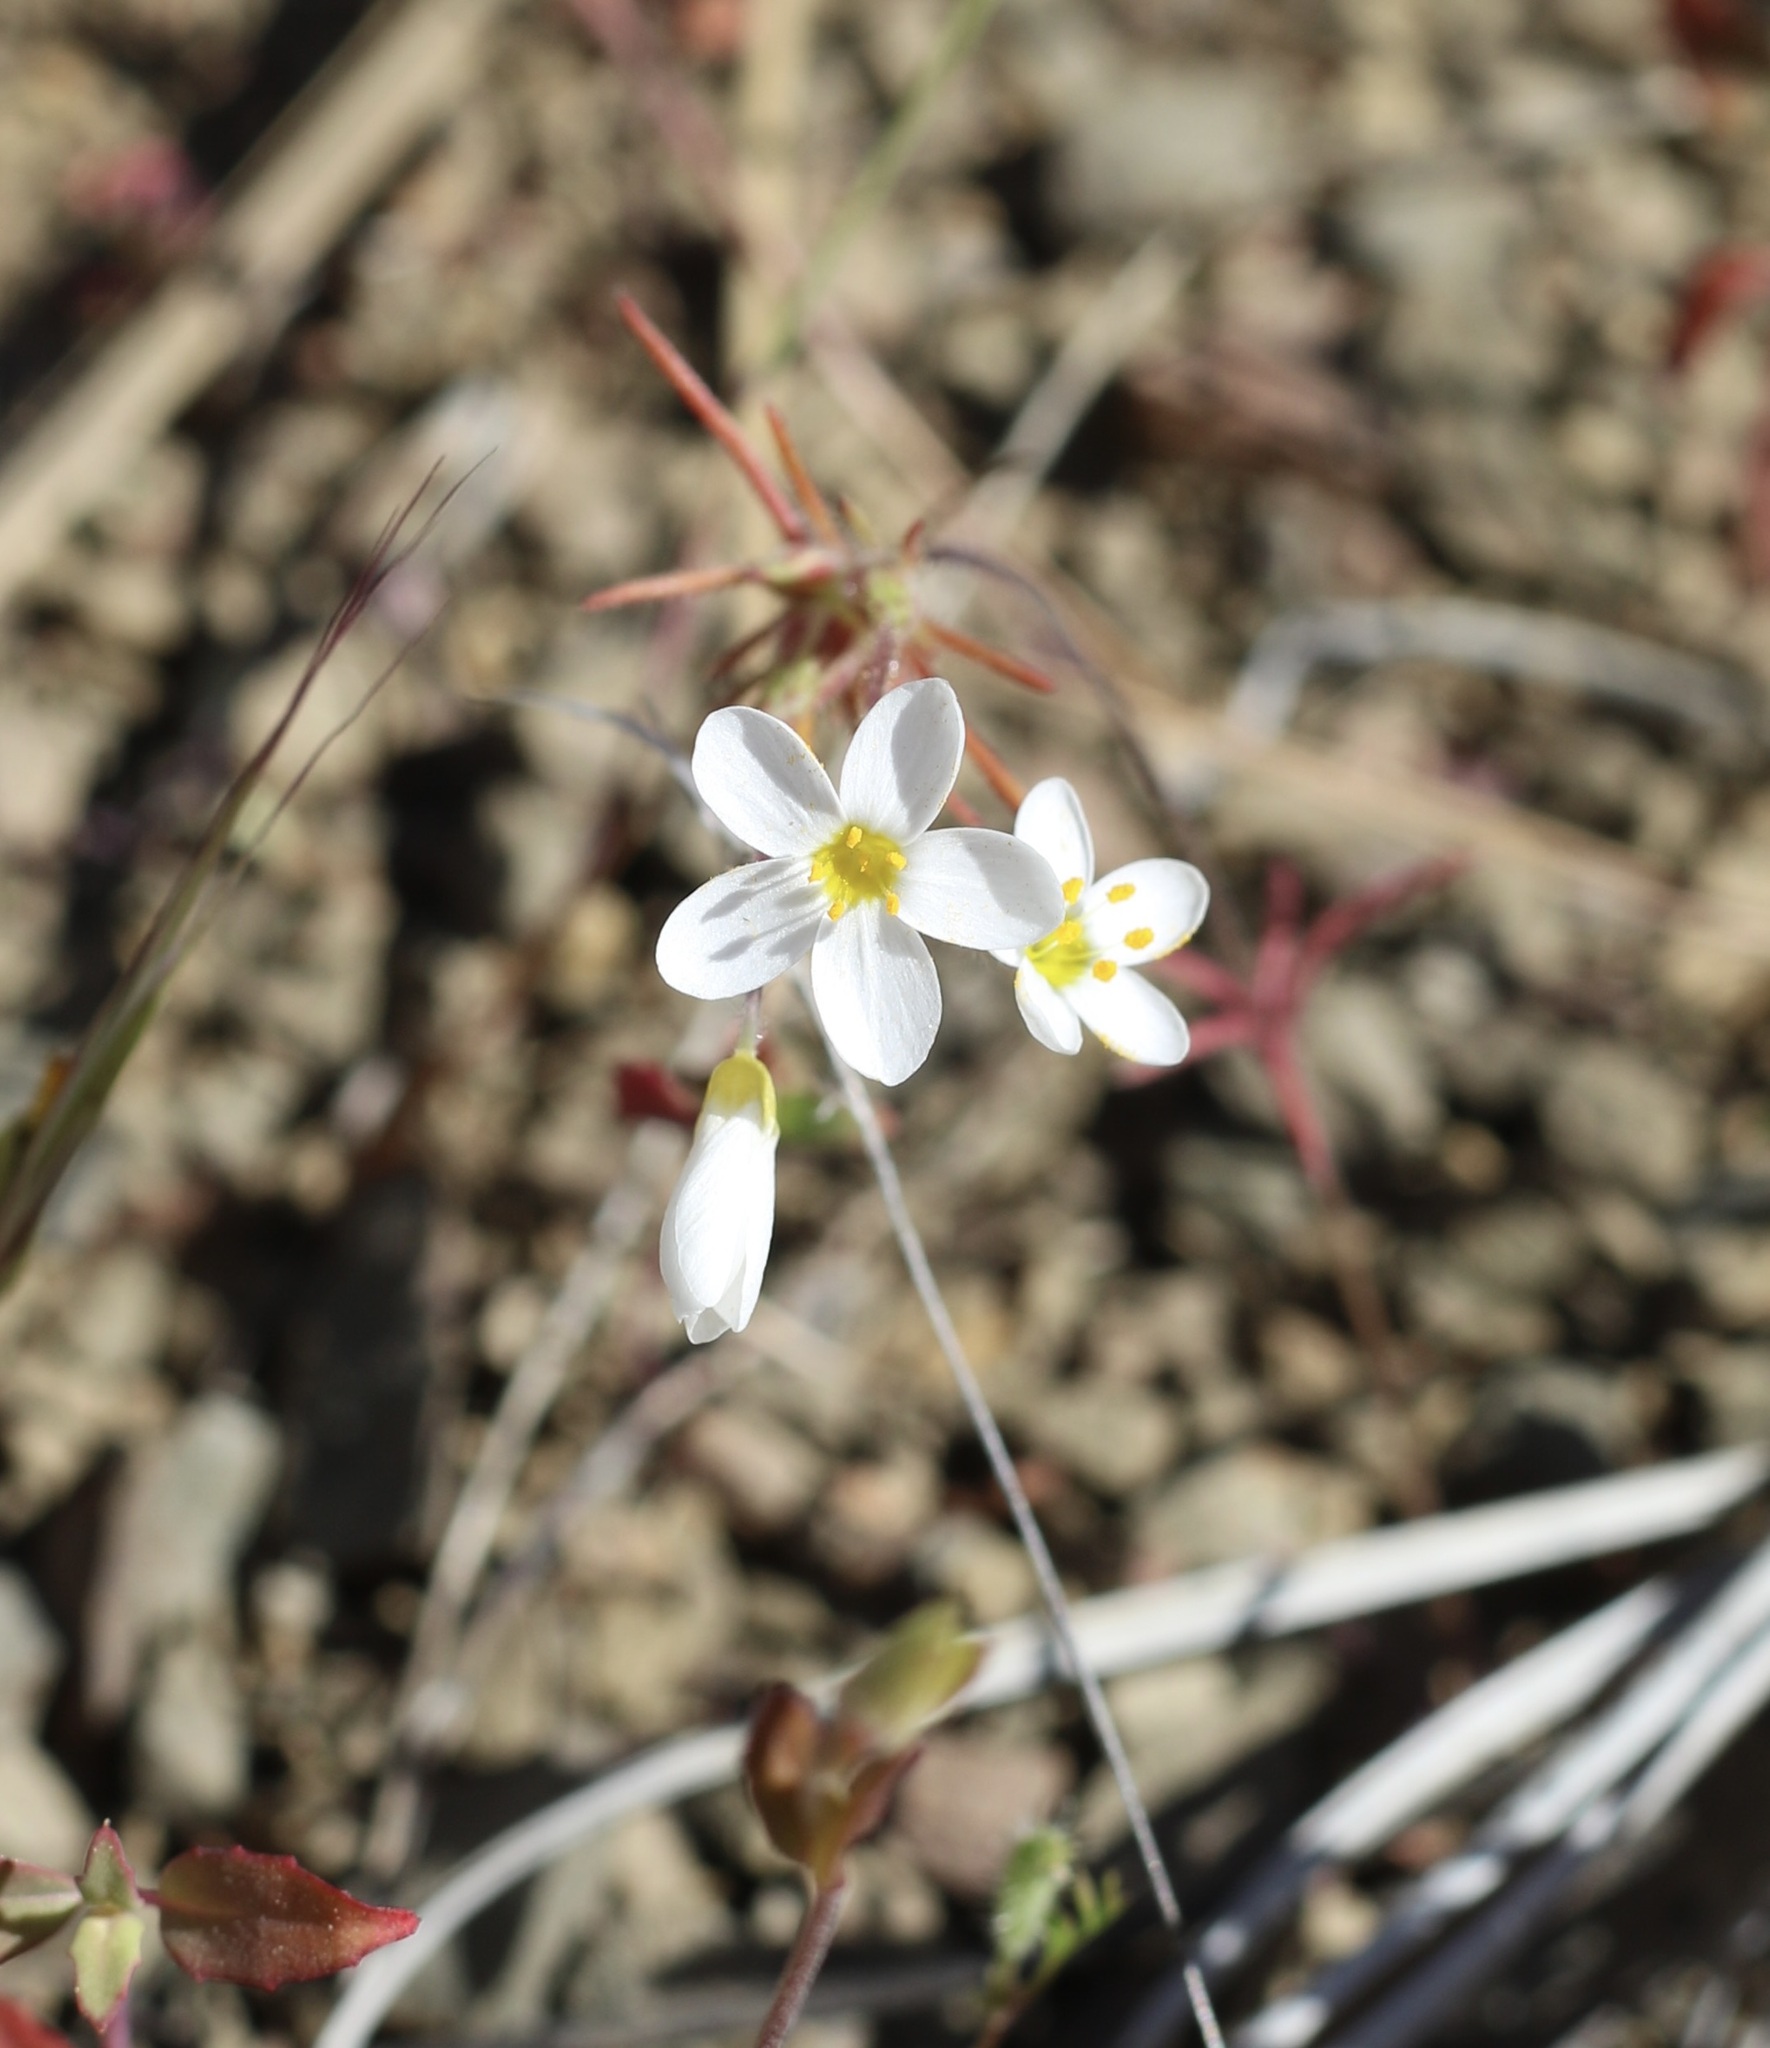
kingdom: Plantae
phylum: Tracheophyta
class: Magnoliopsida
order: Ericales
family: Polemoniaceae
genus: Leptosiphon
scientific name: Leptosiphon parviflorus
